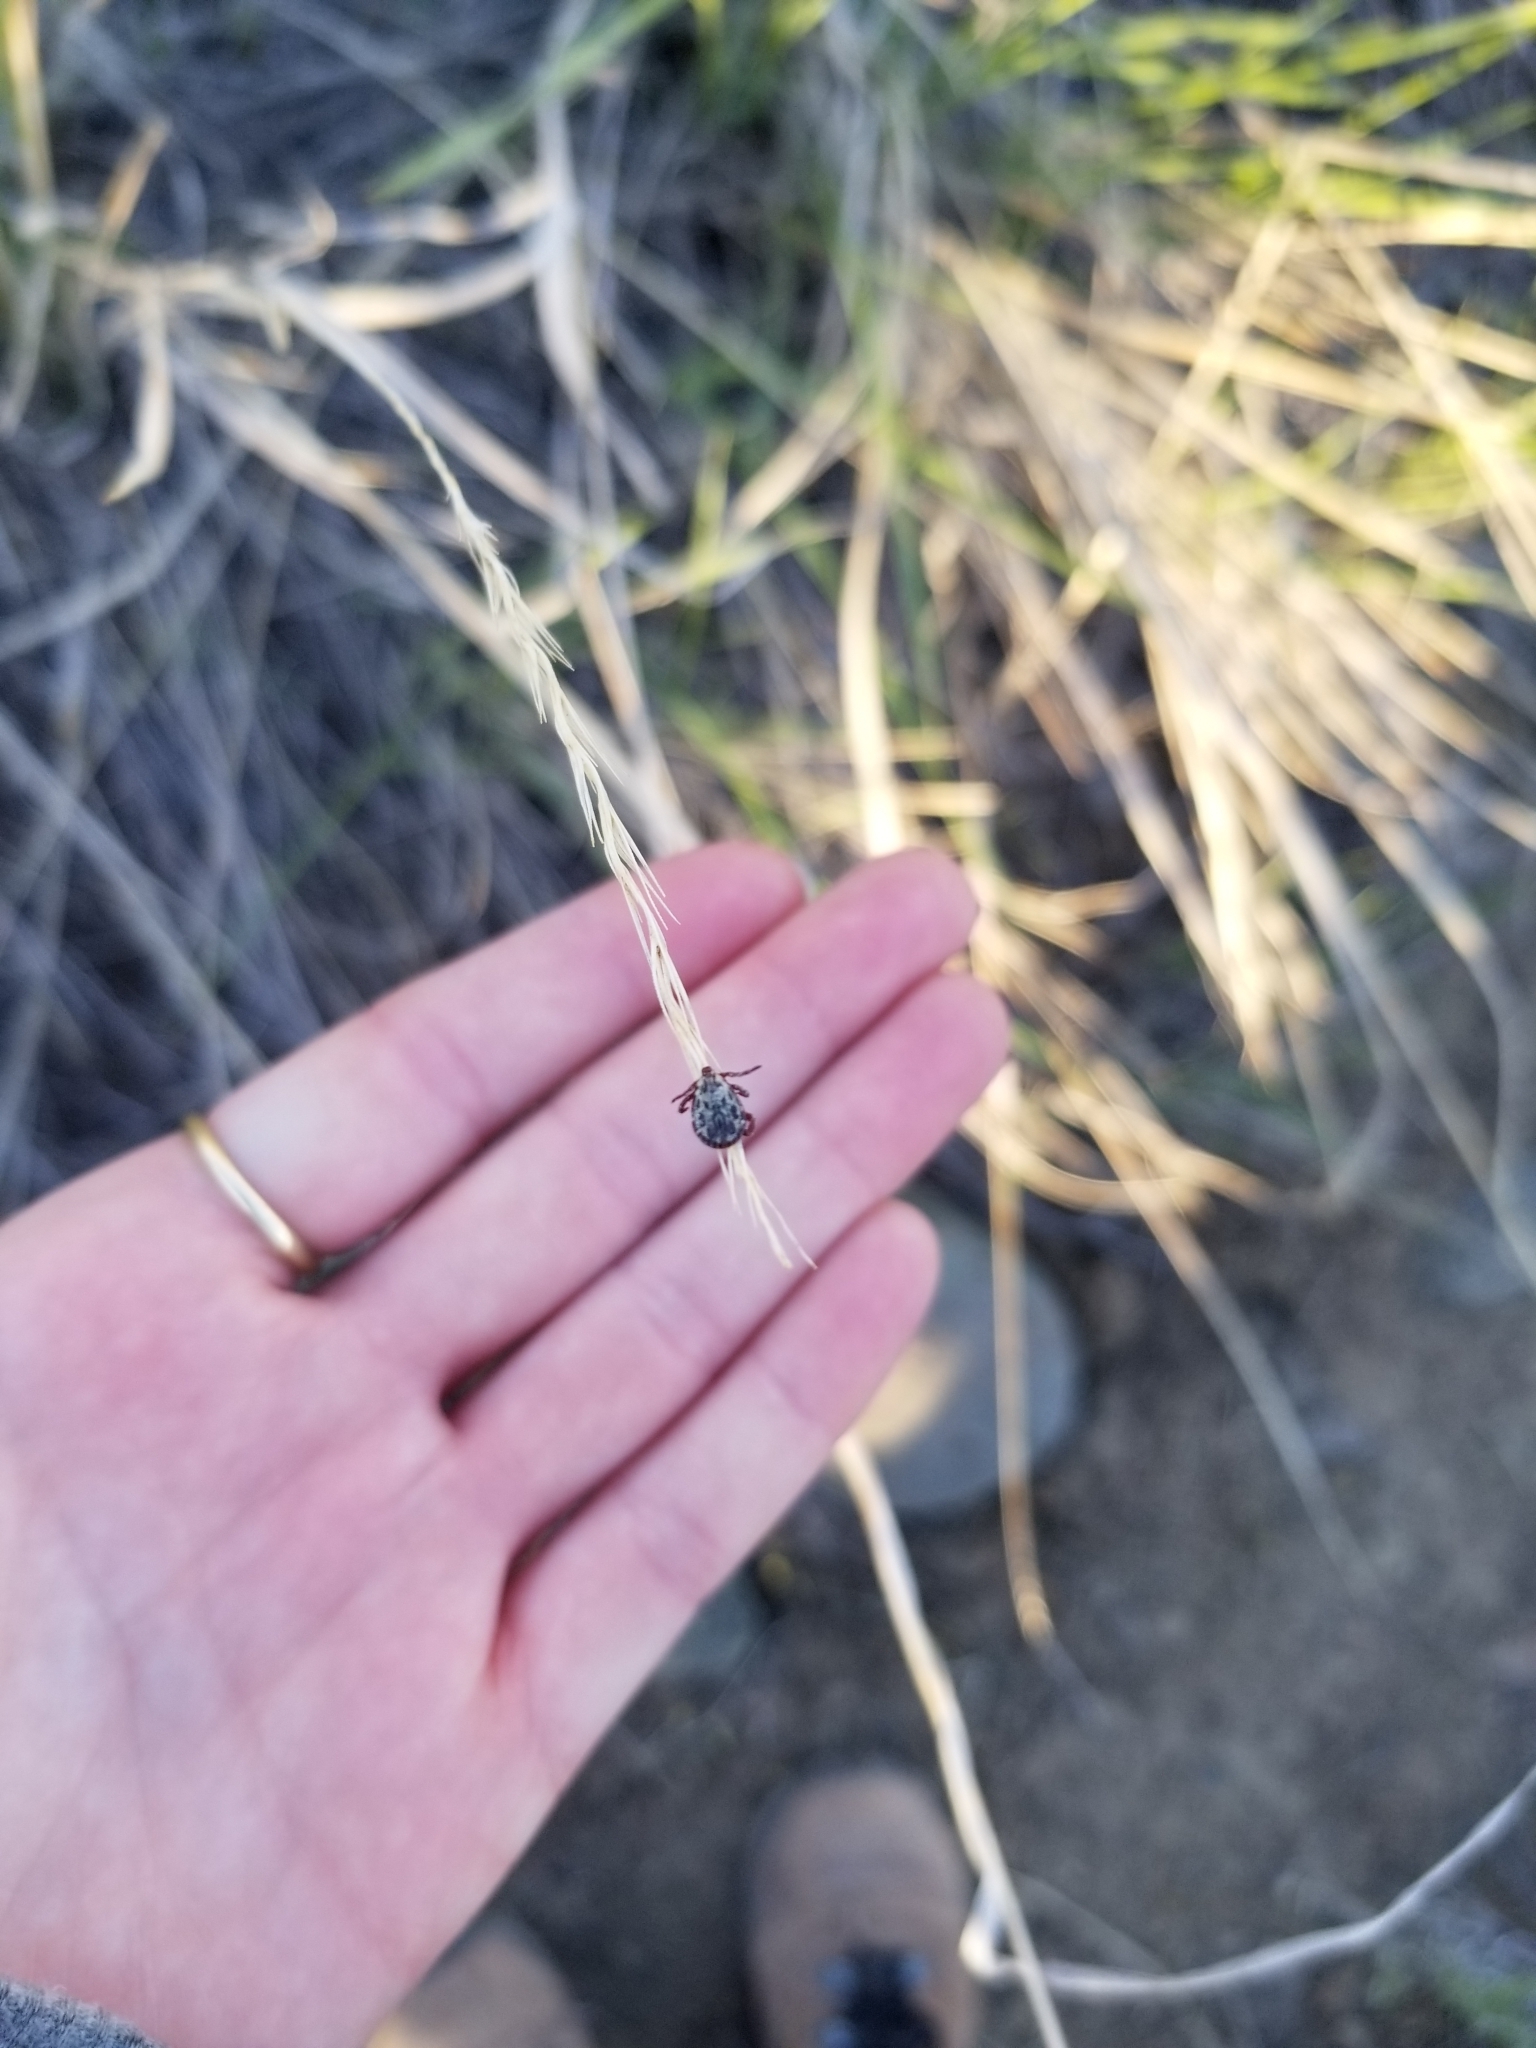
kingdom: Animalia
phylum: Arthropoda
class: Arachnida
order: Ixodida
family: Ixodidae
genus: Dermacentor
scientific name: Dermacentor andersoni
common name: Rocky mountain wood tick
